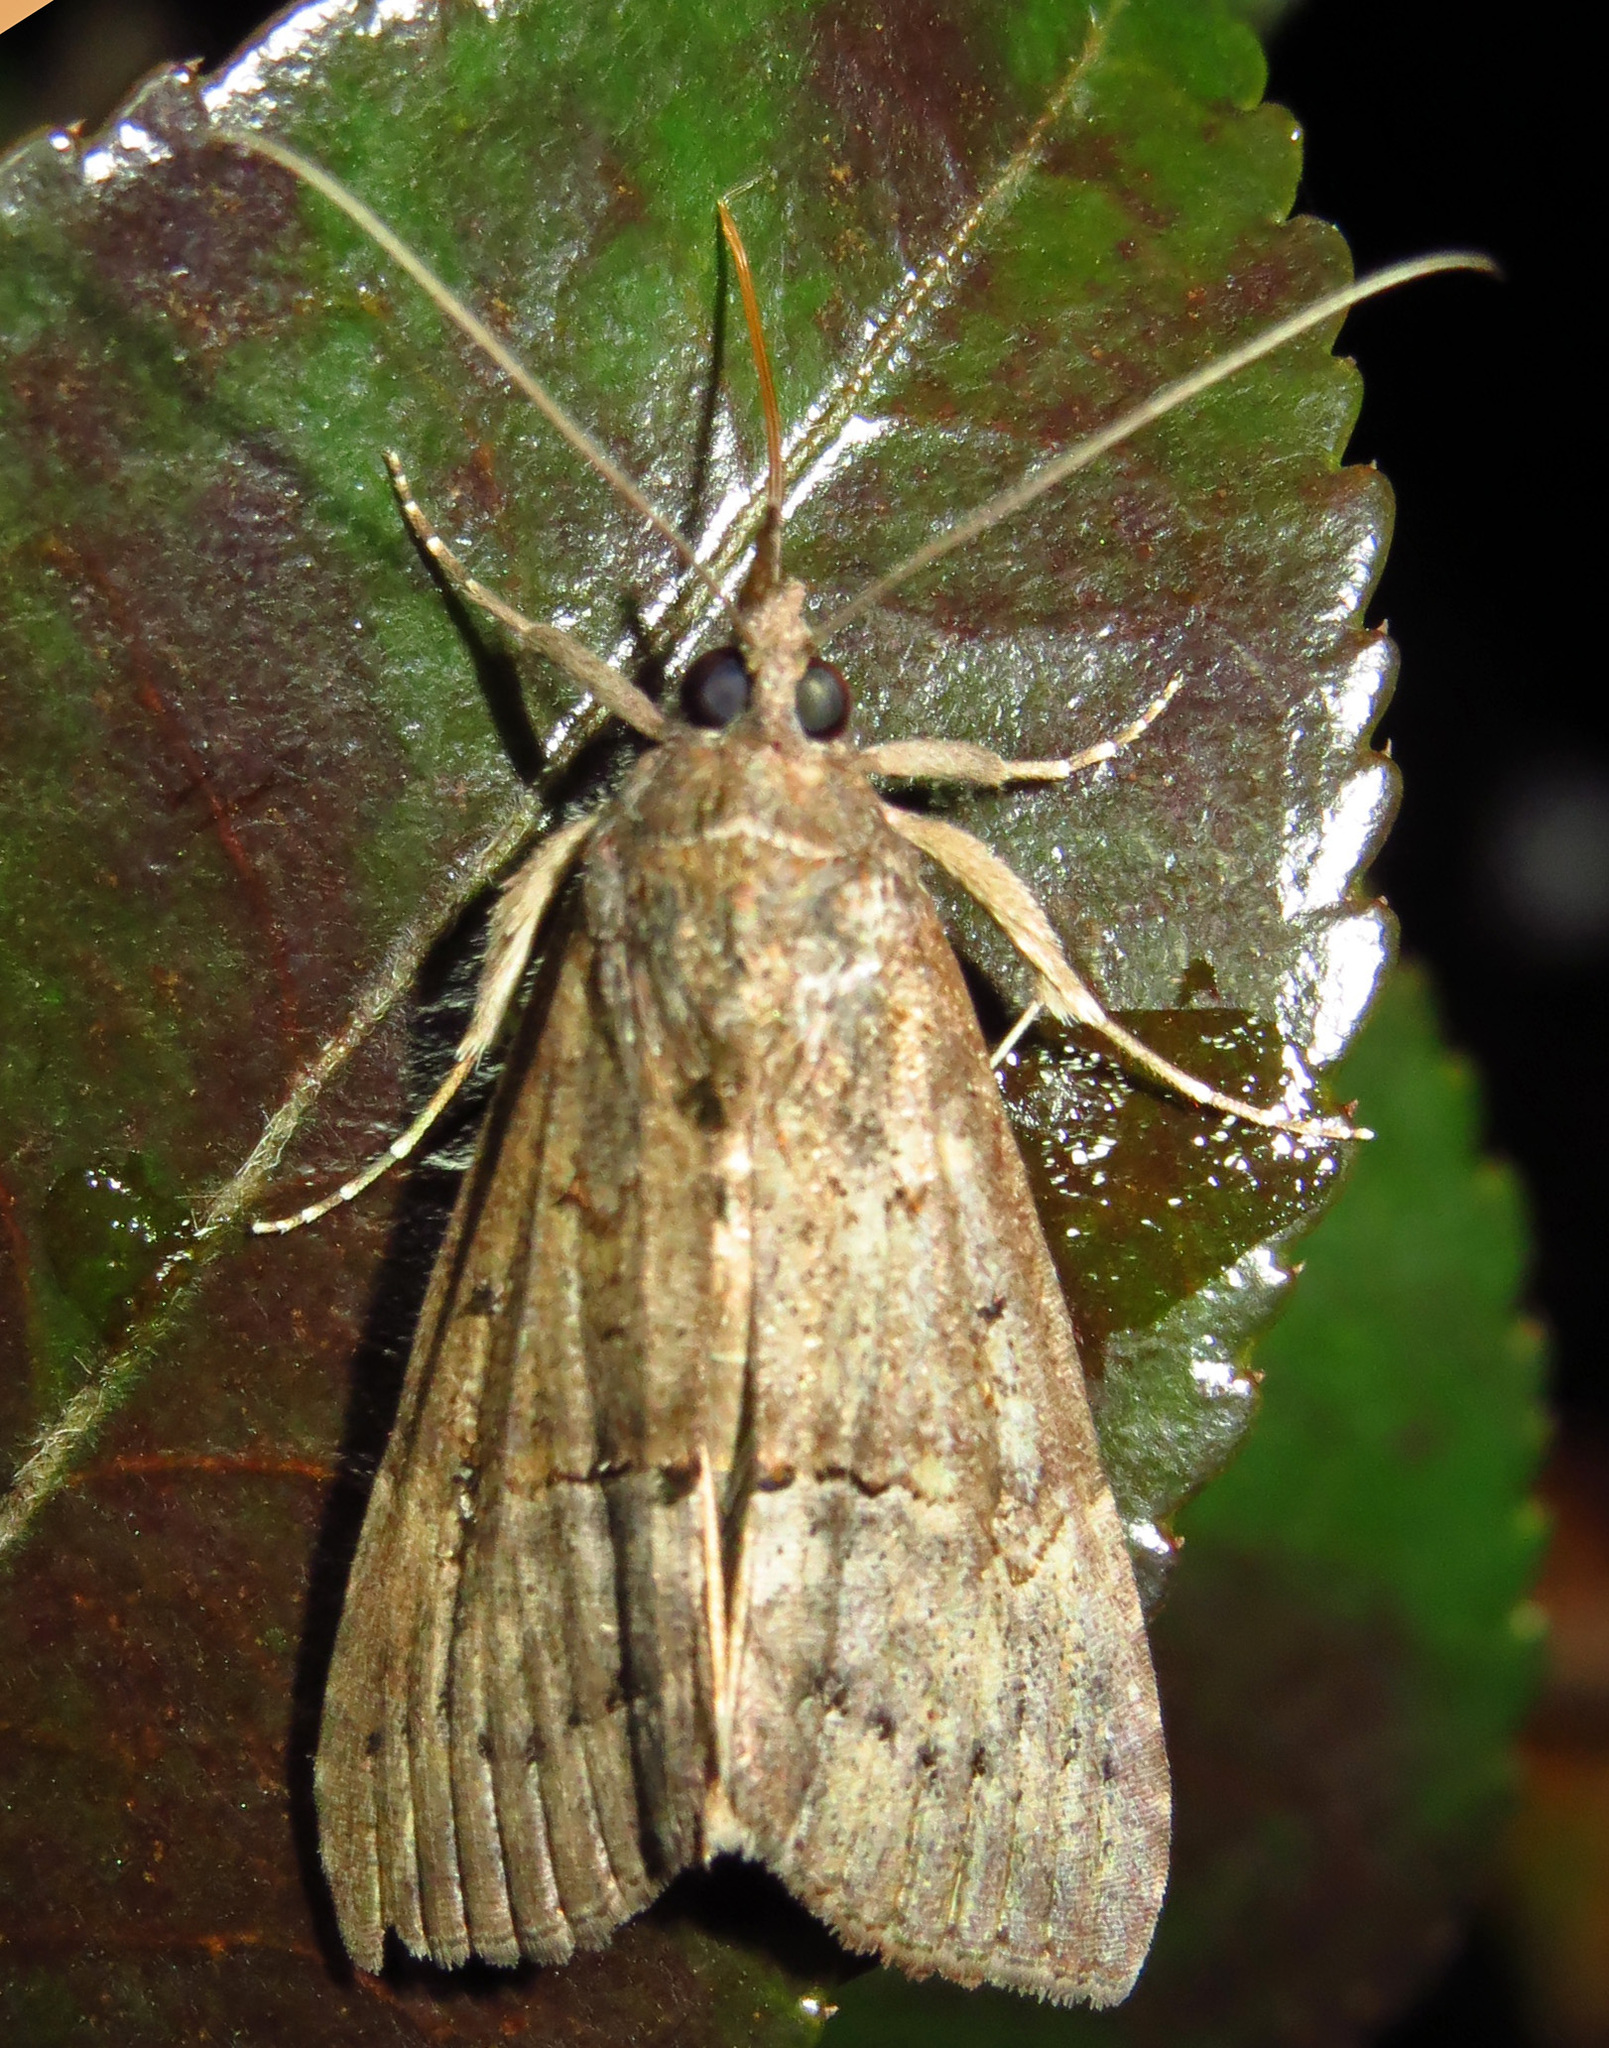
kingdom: Animalia
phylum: Arthropoda
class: Insecta
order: Lepidoptera
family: Erebidae
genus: Hypena
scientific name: Hypena scabra
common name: Green cloverworm
